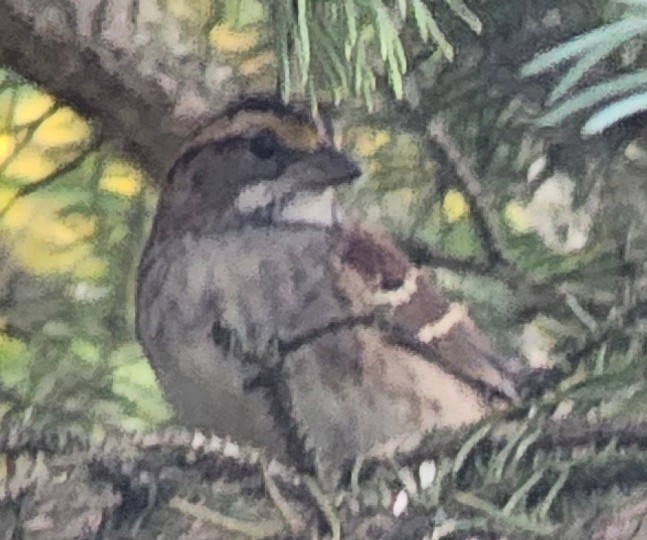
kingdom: Animalia
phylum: Chordata
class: Aves
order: Passeriformes
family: Passerellidae
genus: Zonotrichia
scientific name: Zonotrichia albicollis
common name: White-throated sparrow
